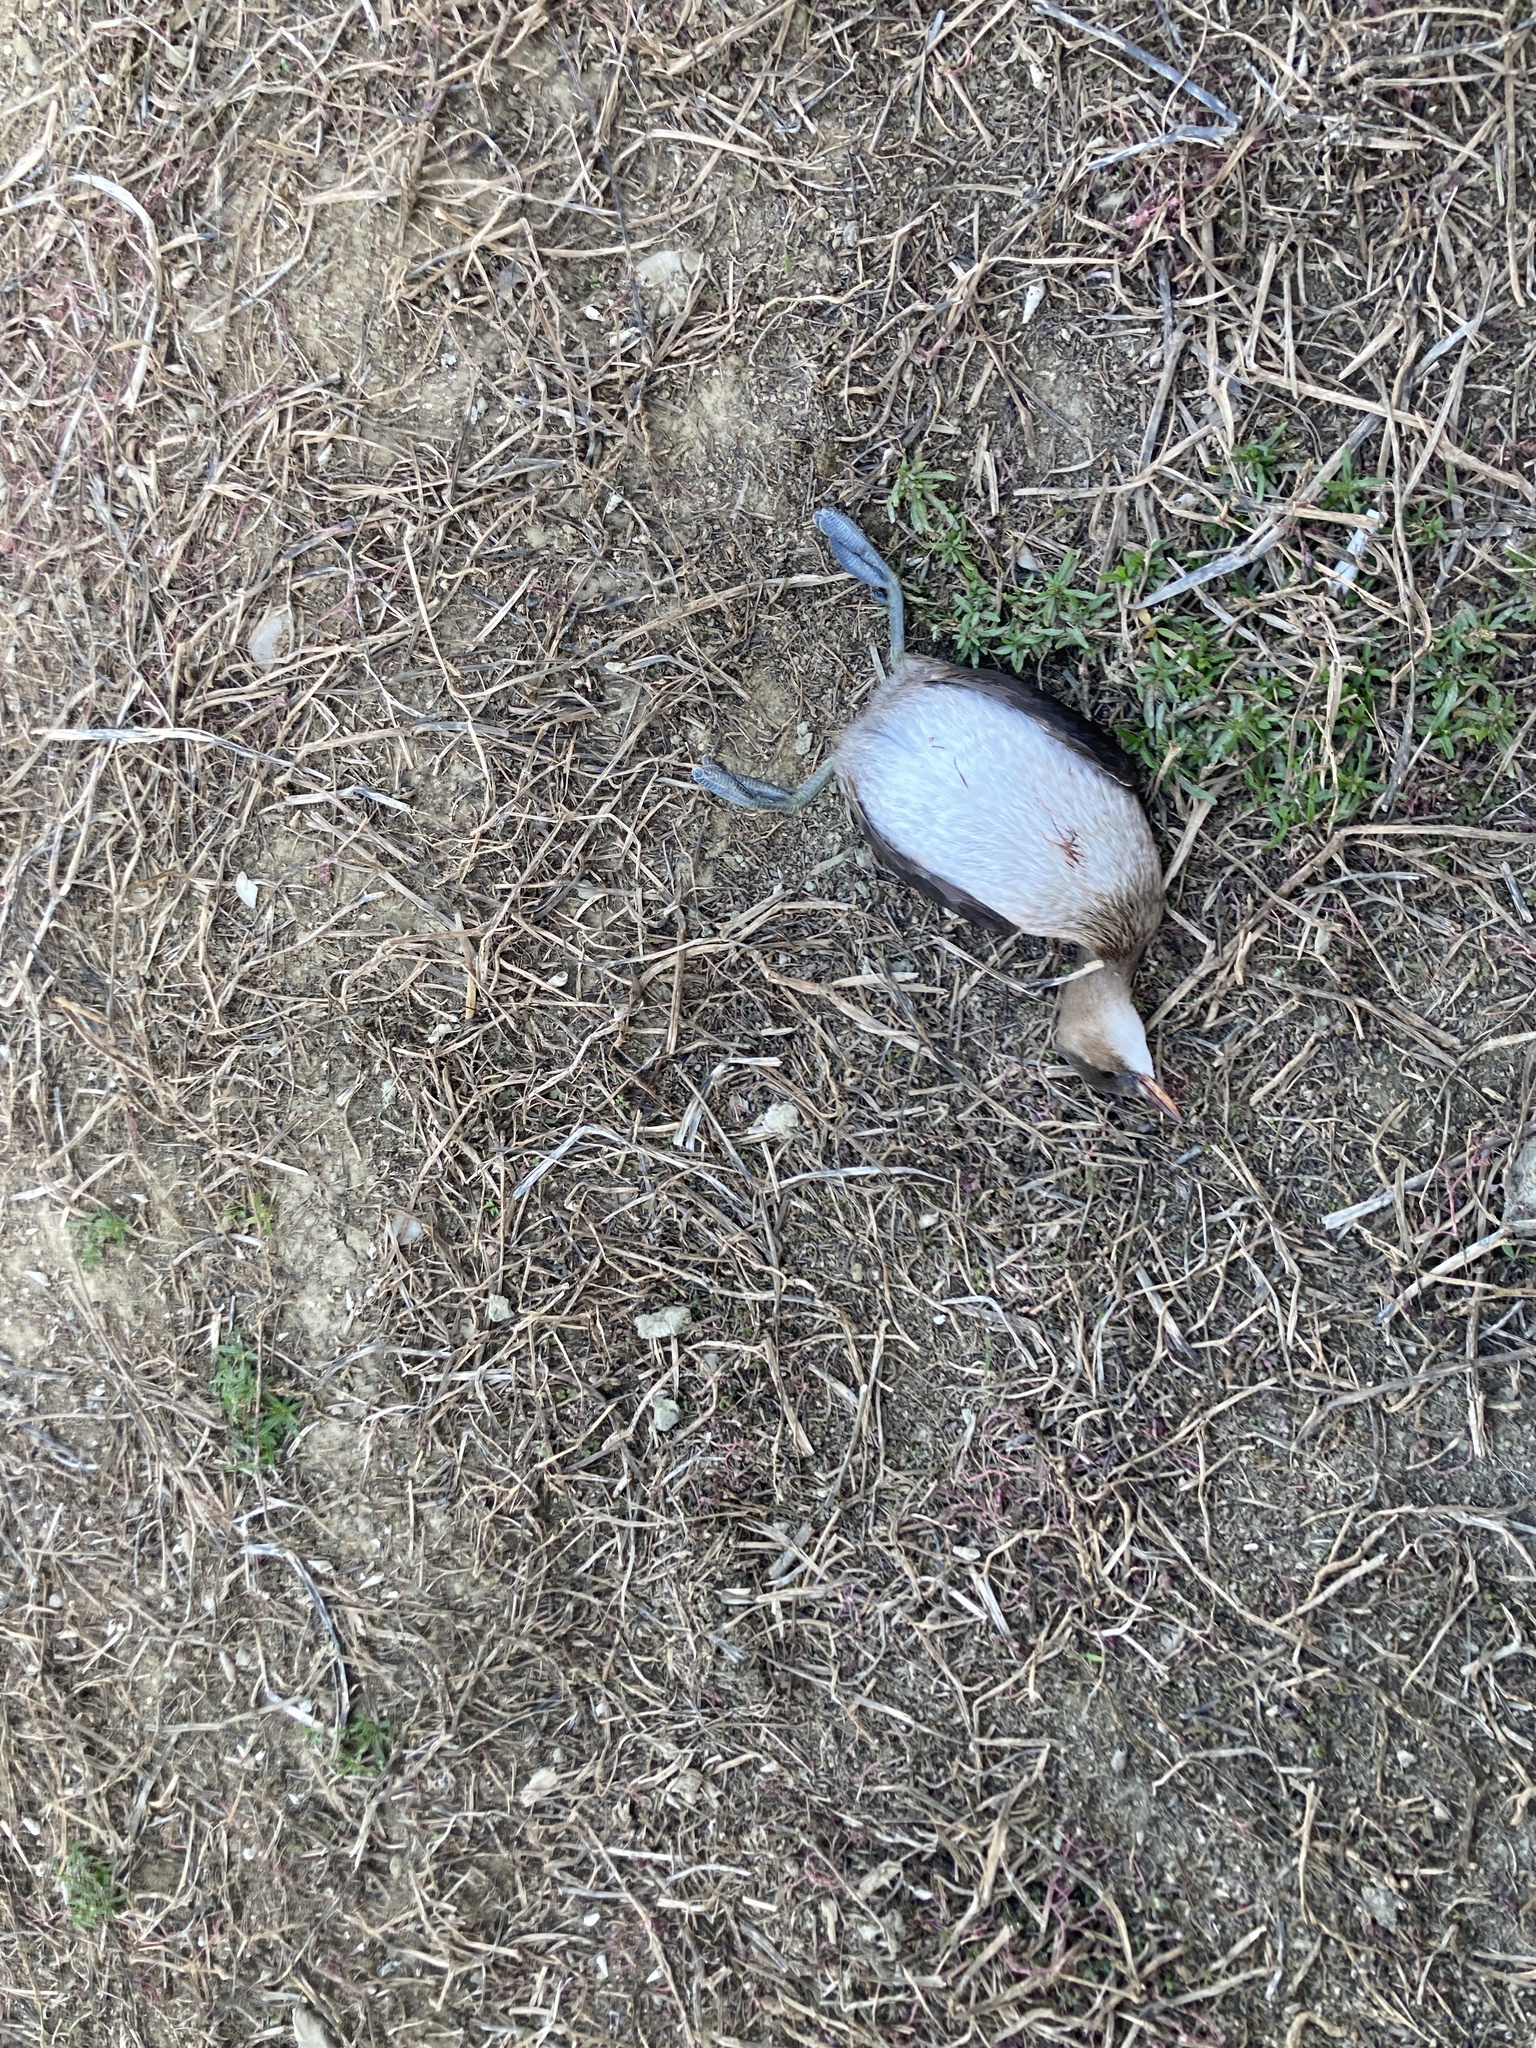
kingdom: Animalia
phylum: Chordata
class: Aves
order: Podicipediformes
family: Podicipedidae
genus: Tachybaptus
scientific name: Tachybaptus ruficollis
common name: Little grebe
